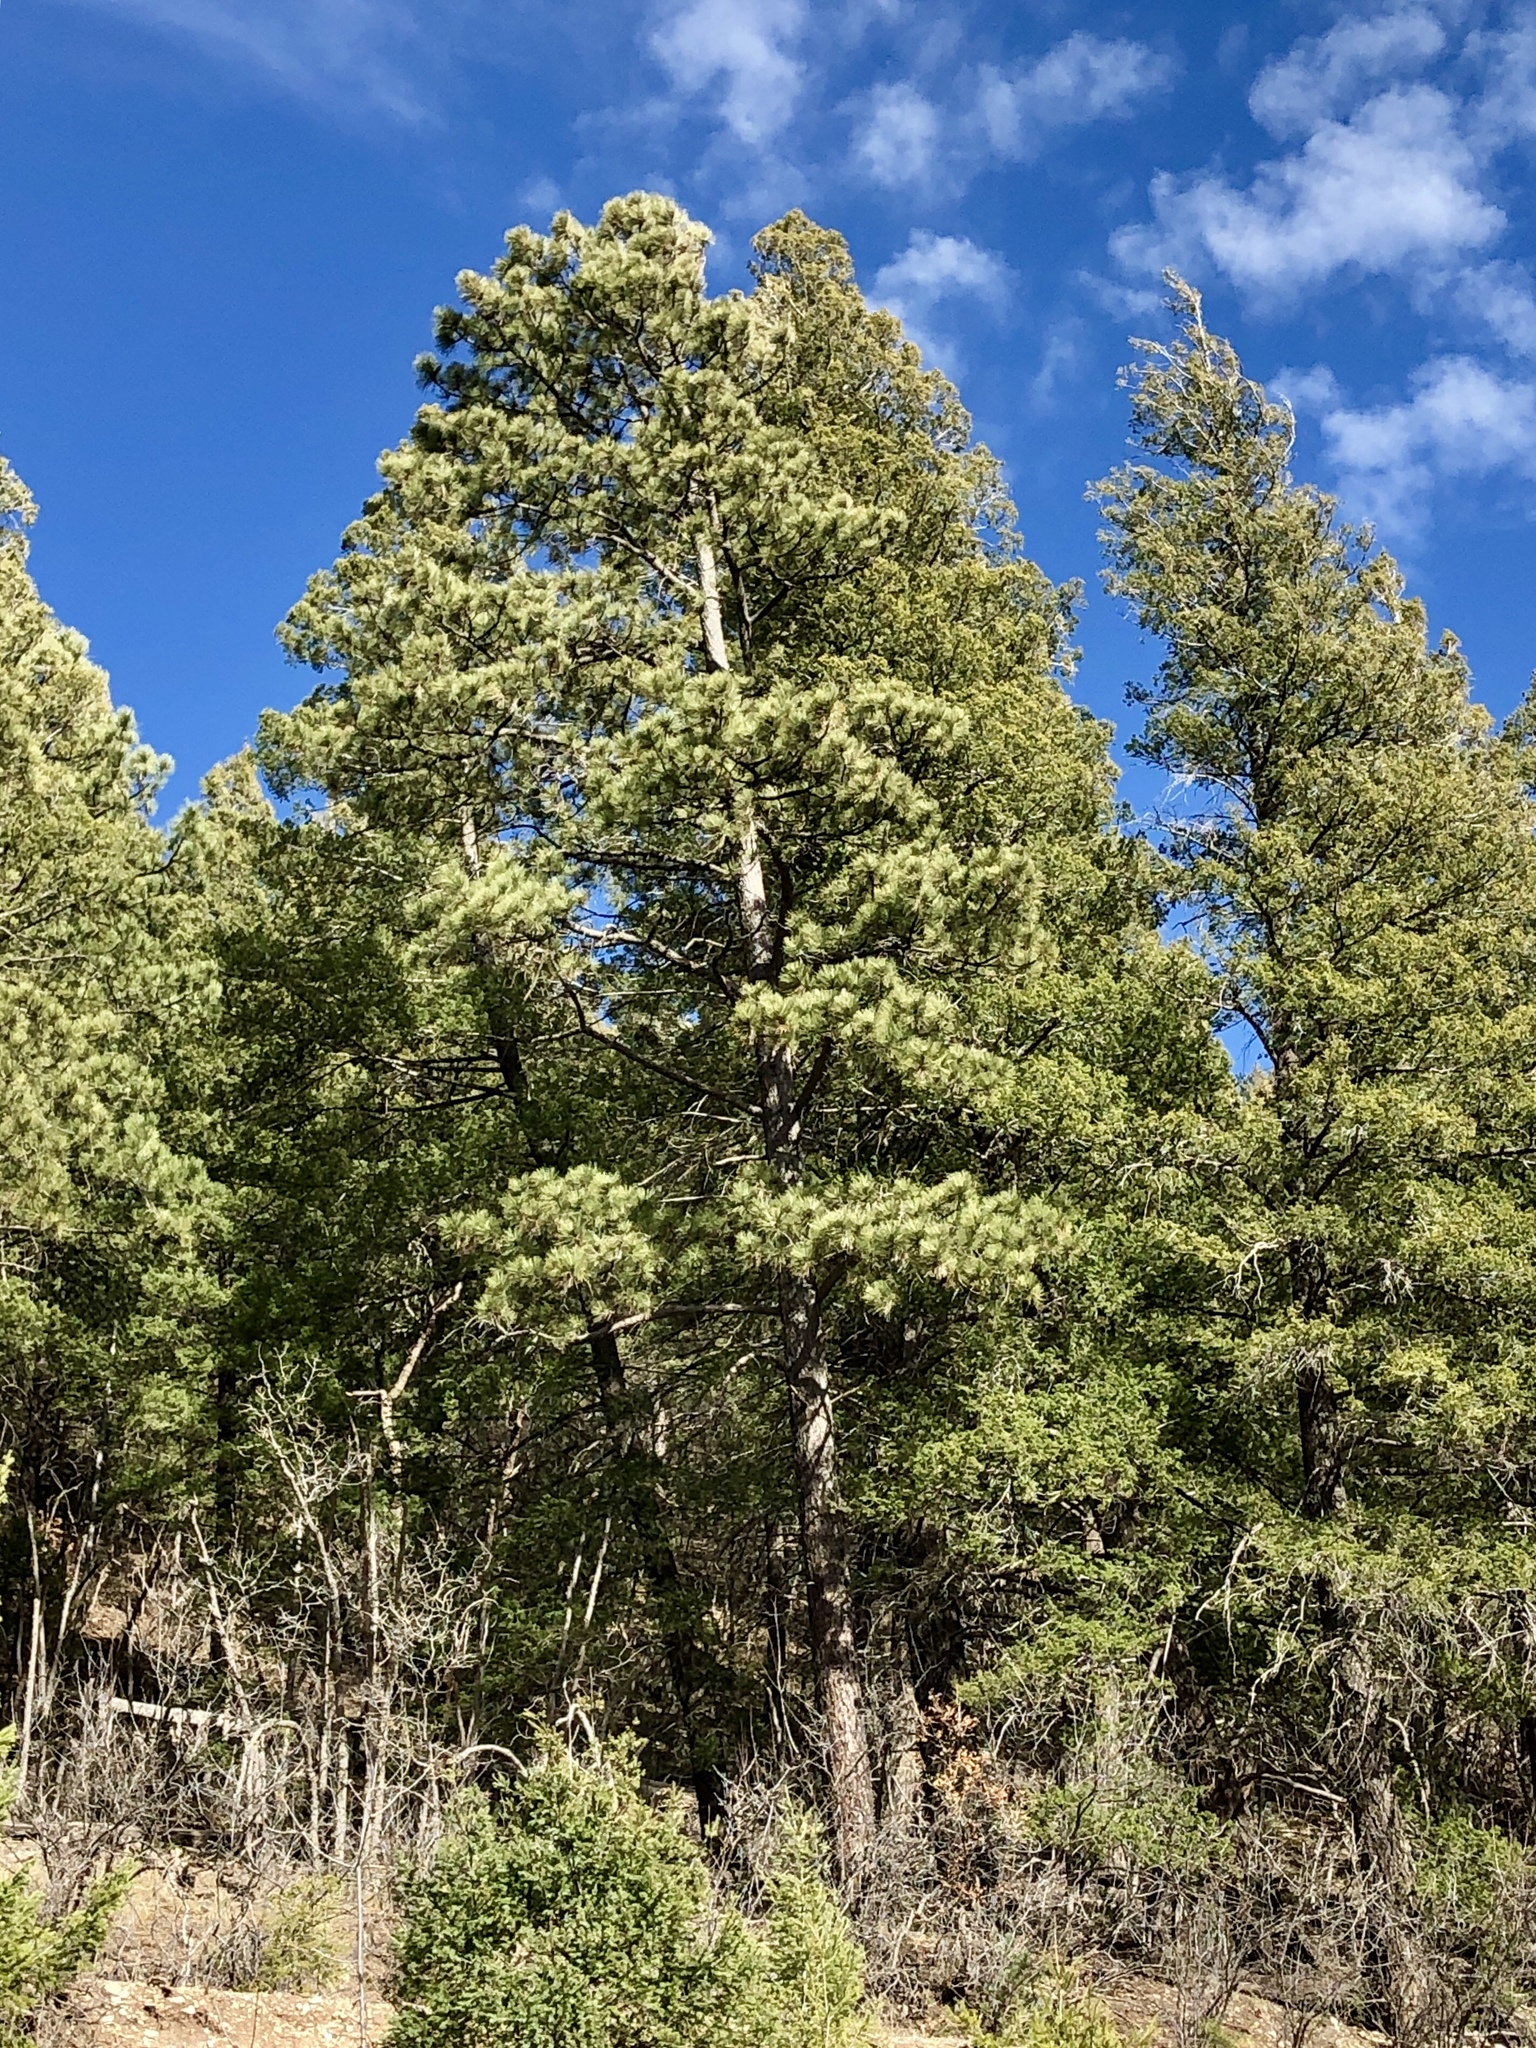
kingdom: Plantae
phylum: Tracheophyta
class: Pinopsida
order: Pinales
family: Pinaceae
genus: Pinus
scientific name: Pinus ponderosa
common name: Western yellow-pine
